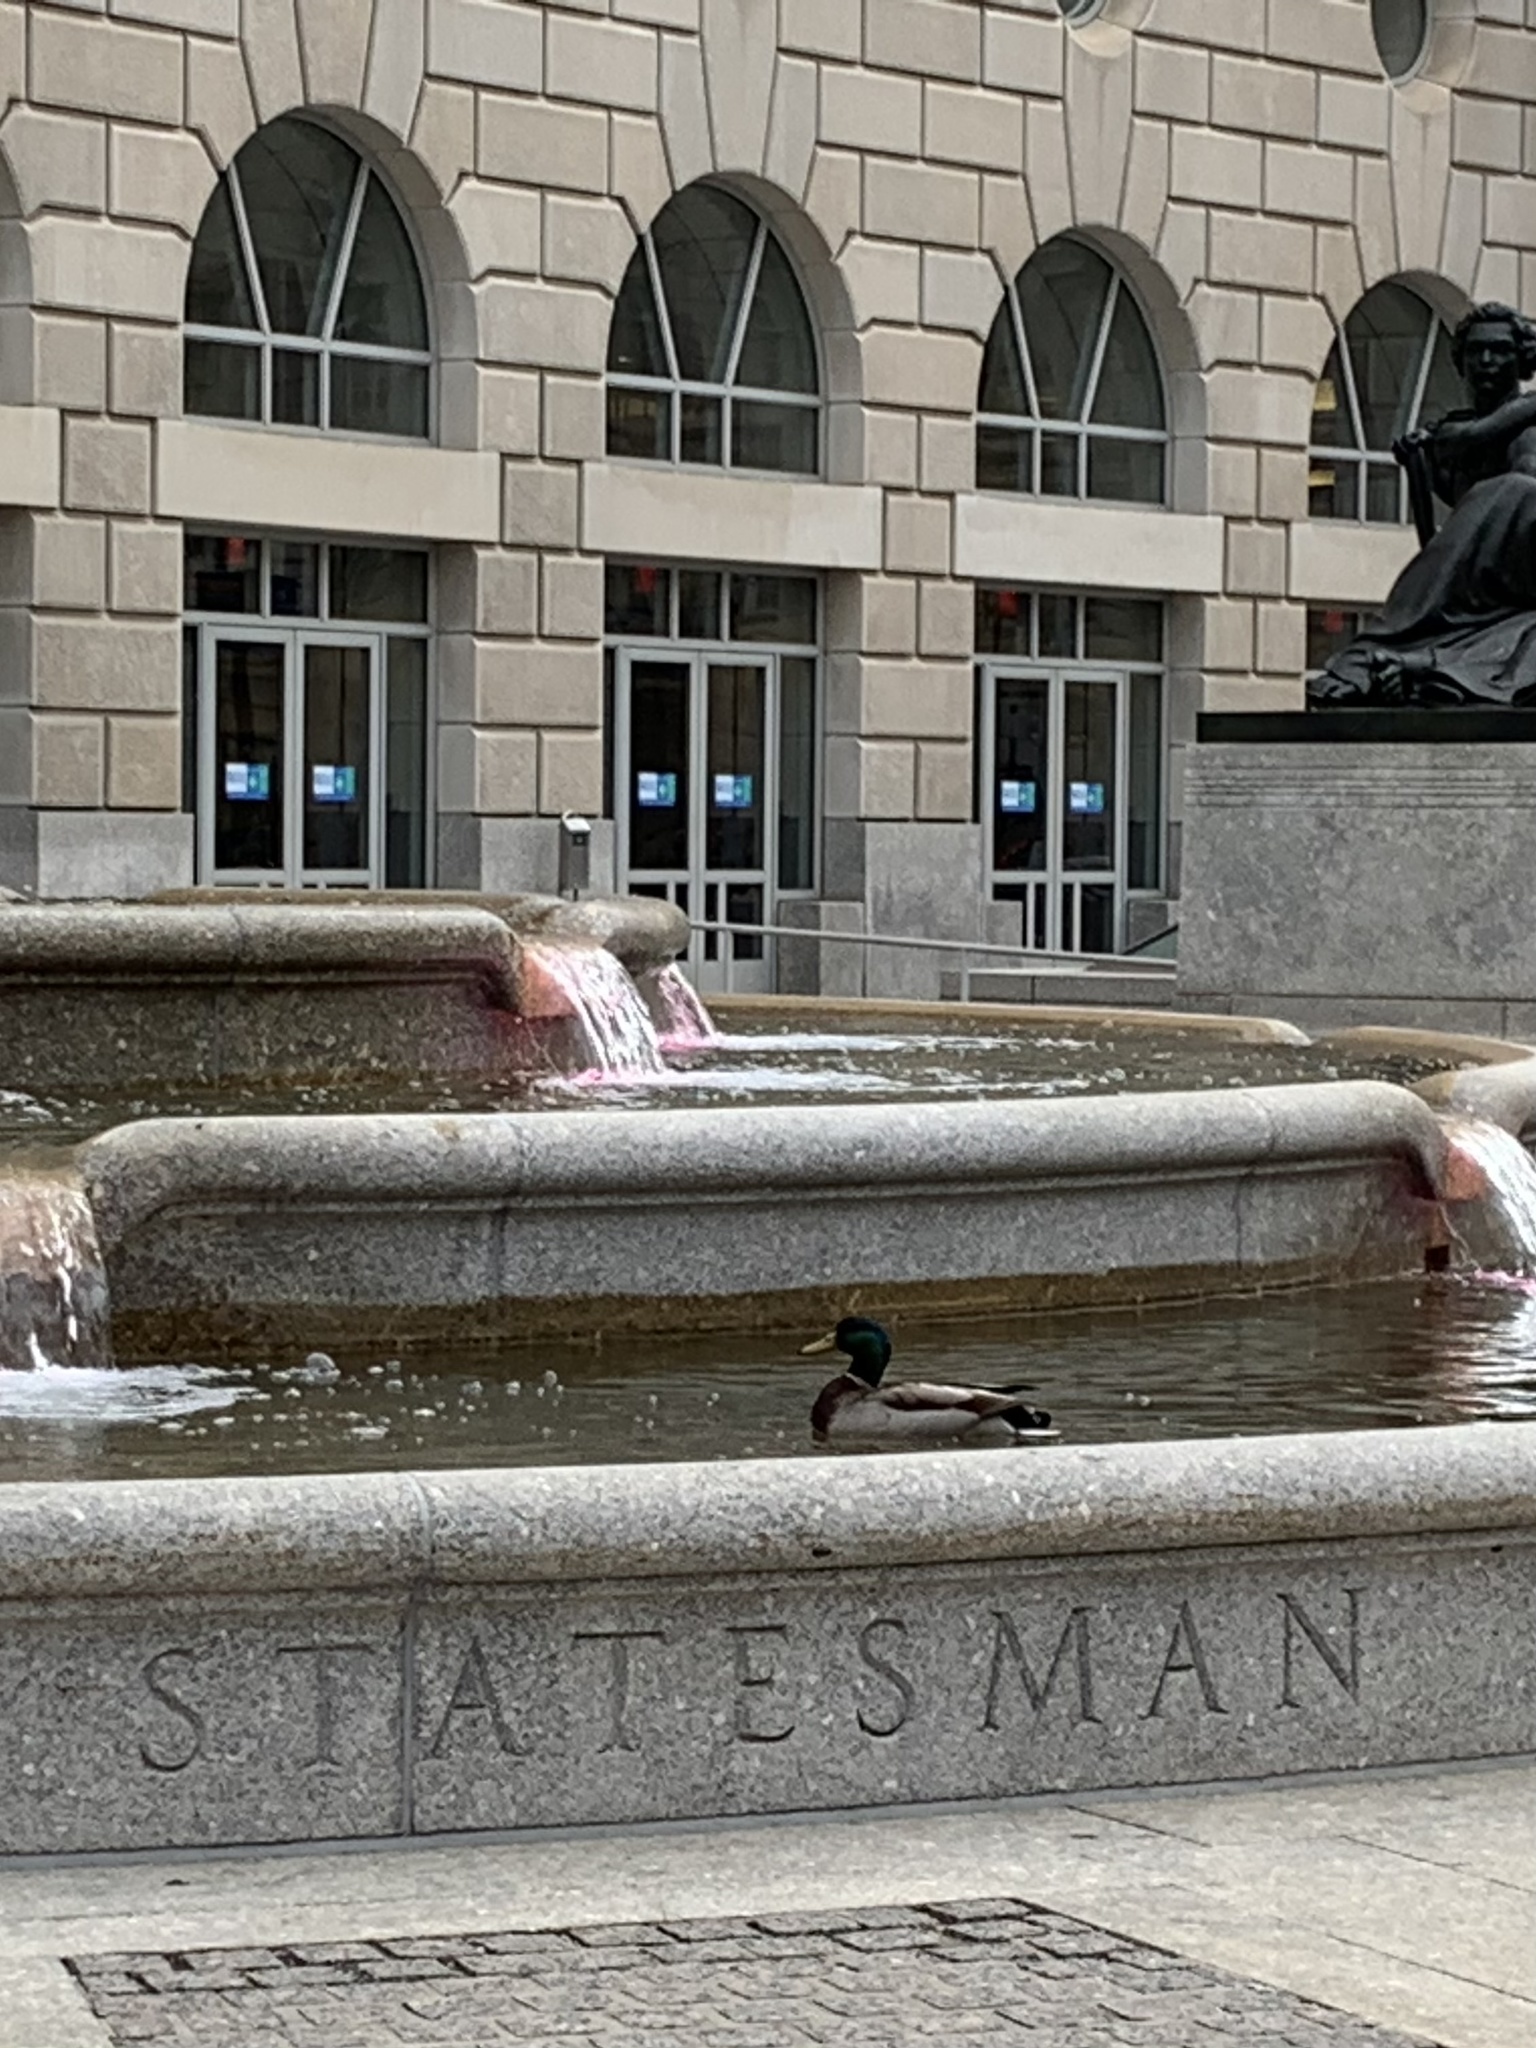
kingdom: Animalia
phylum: Chordata
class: Aves
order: Anseriformes
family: Anatidae
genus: Anas
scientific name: Anas platyrhynchos
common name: Mallard
